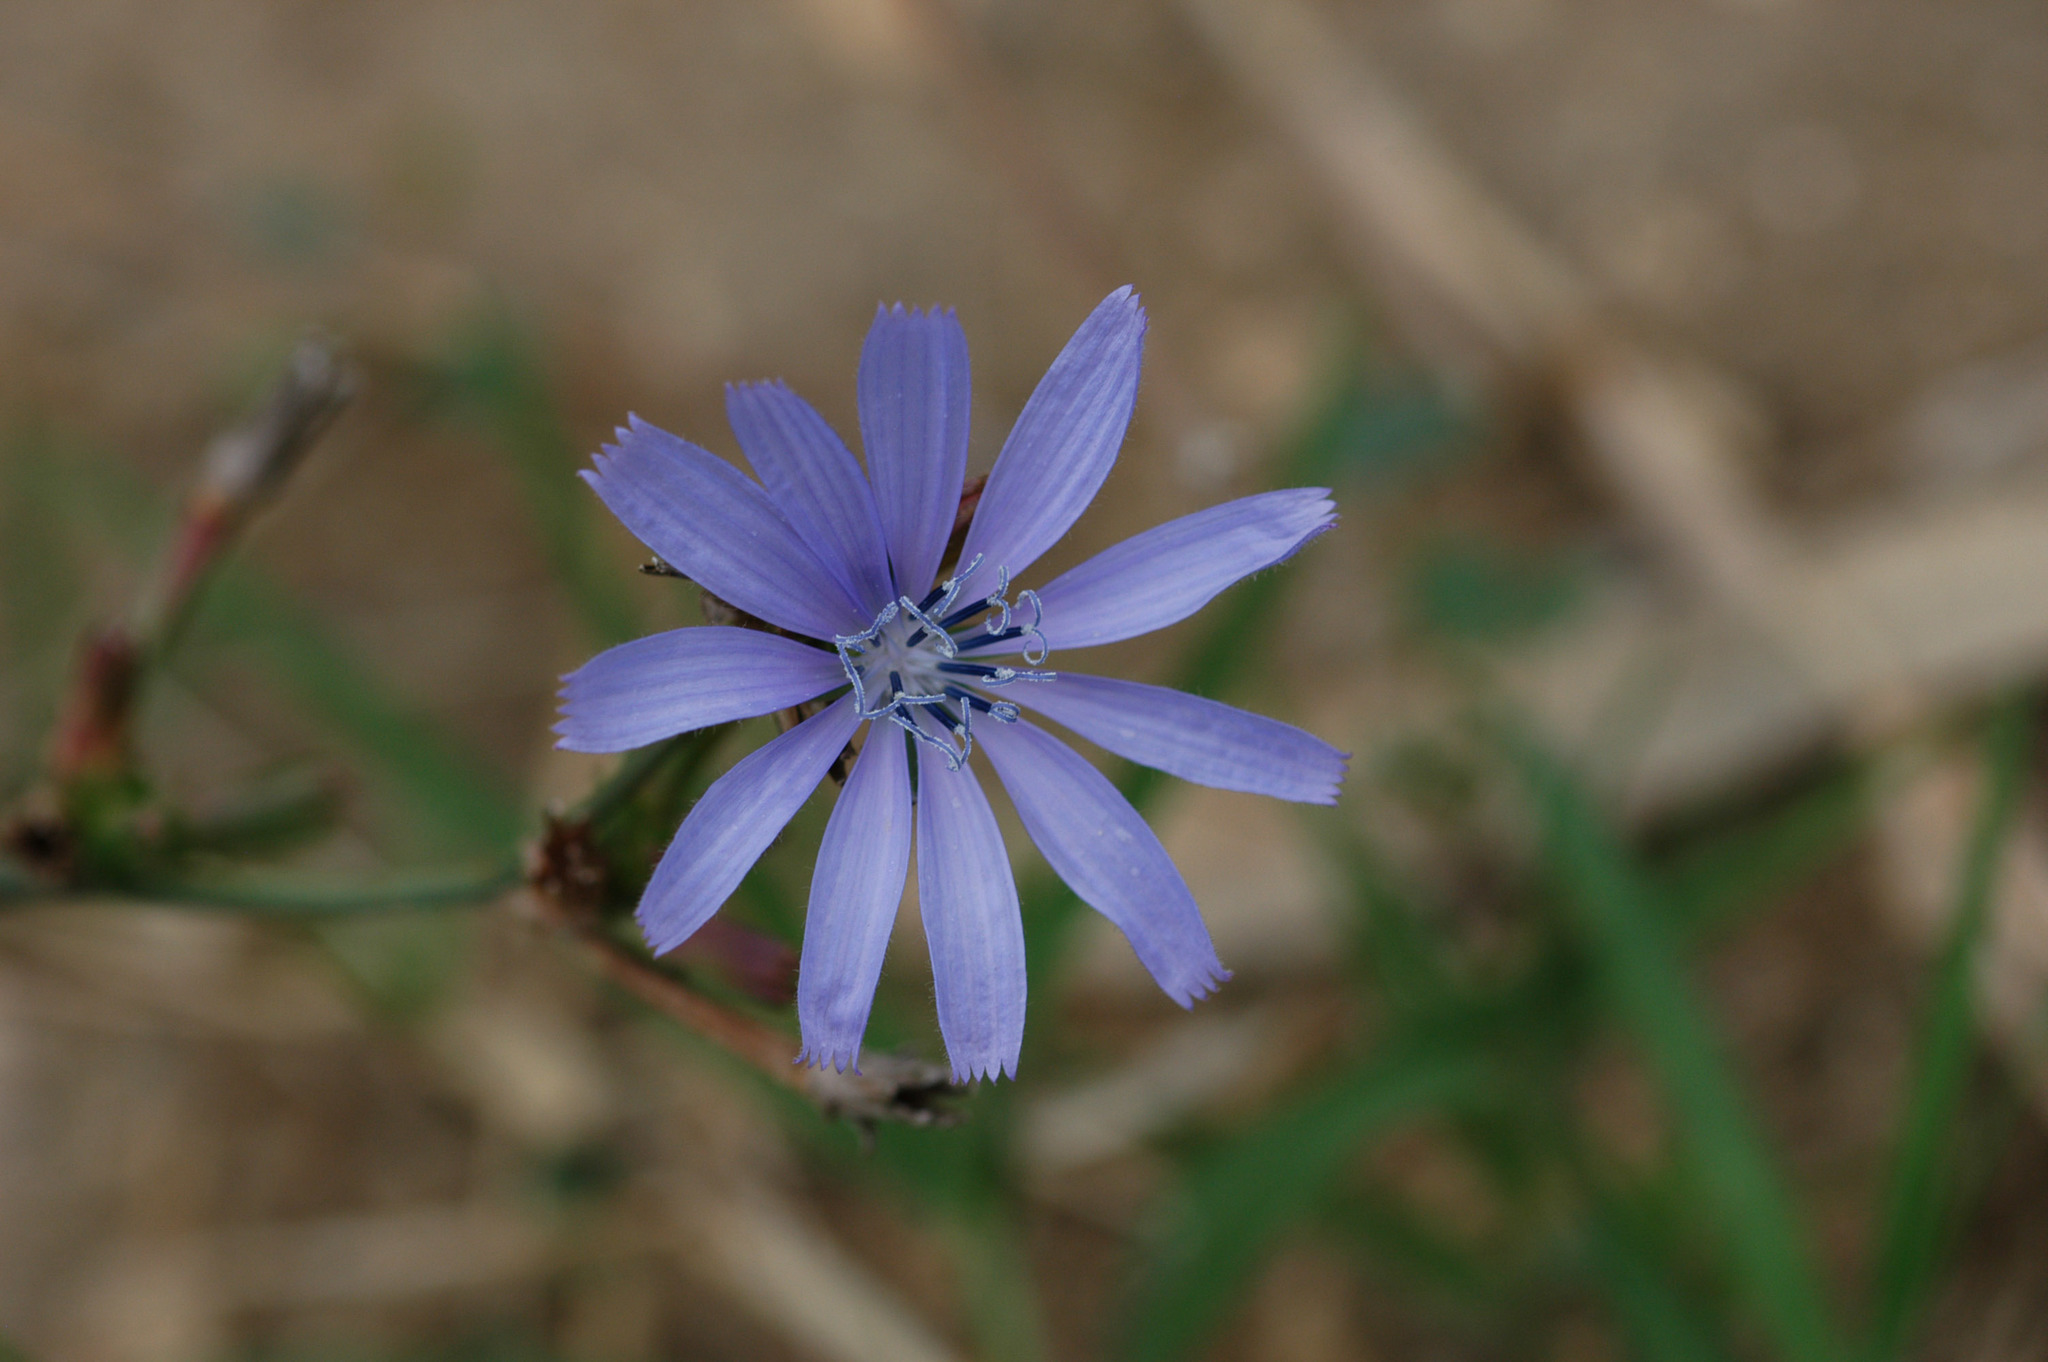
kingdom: Plantae
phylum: Tracheophyta
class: Magnoliopsida
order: Asterales
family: Asteraceae
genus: Cichorium
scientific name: Cichorium intybus
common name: Chicory
